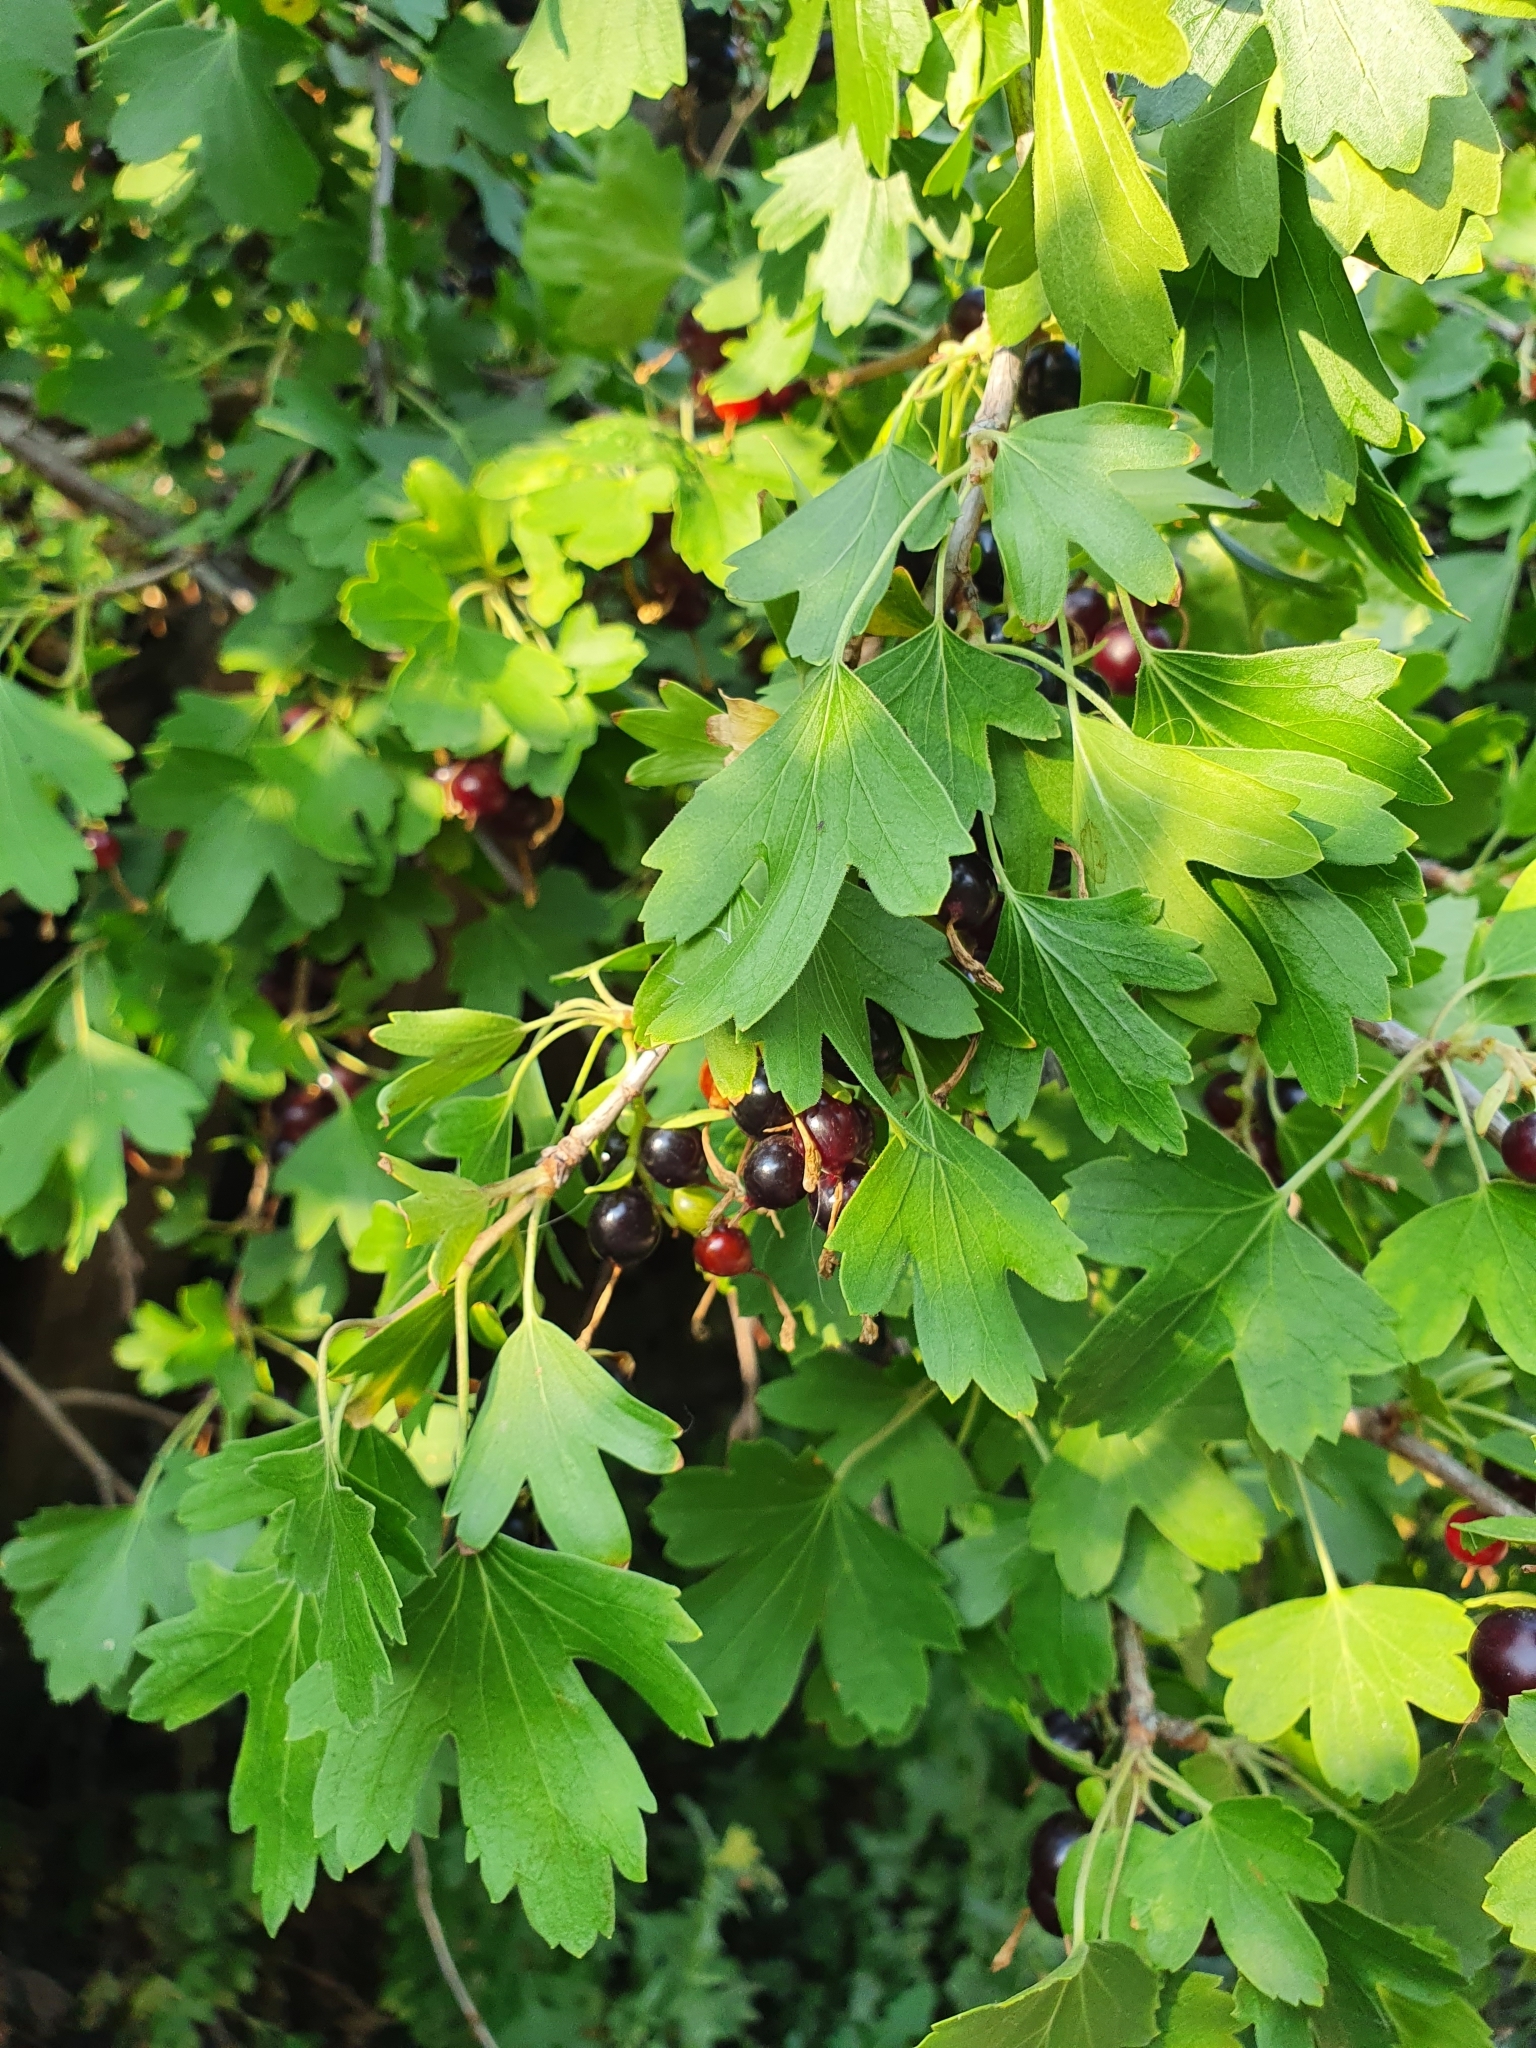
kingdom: Plantae
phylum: Tracheophyta
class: Magnoliopsida
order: Saxifragales
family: Grossulariaceae
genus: Ribes
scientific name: Ribes aureum
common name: Golden currant
